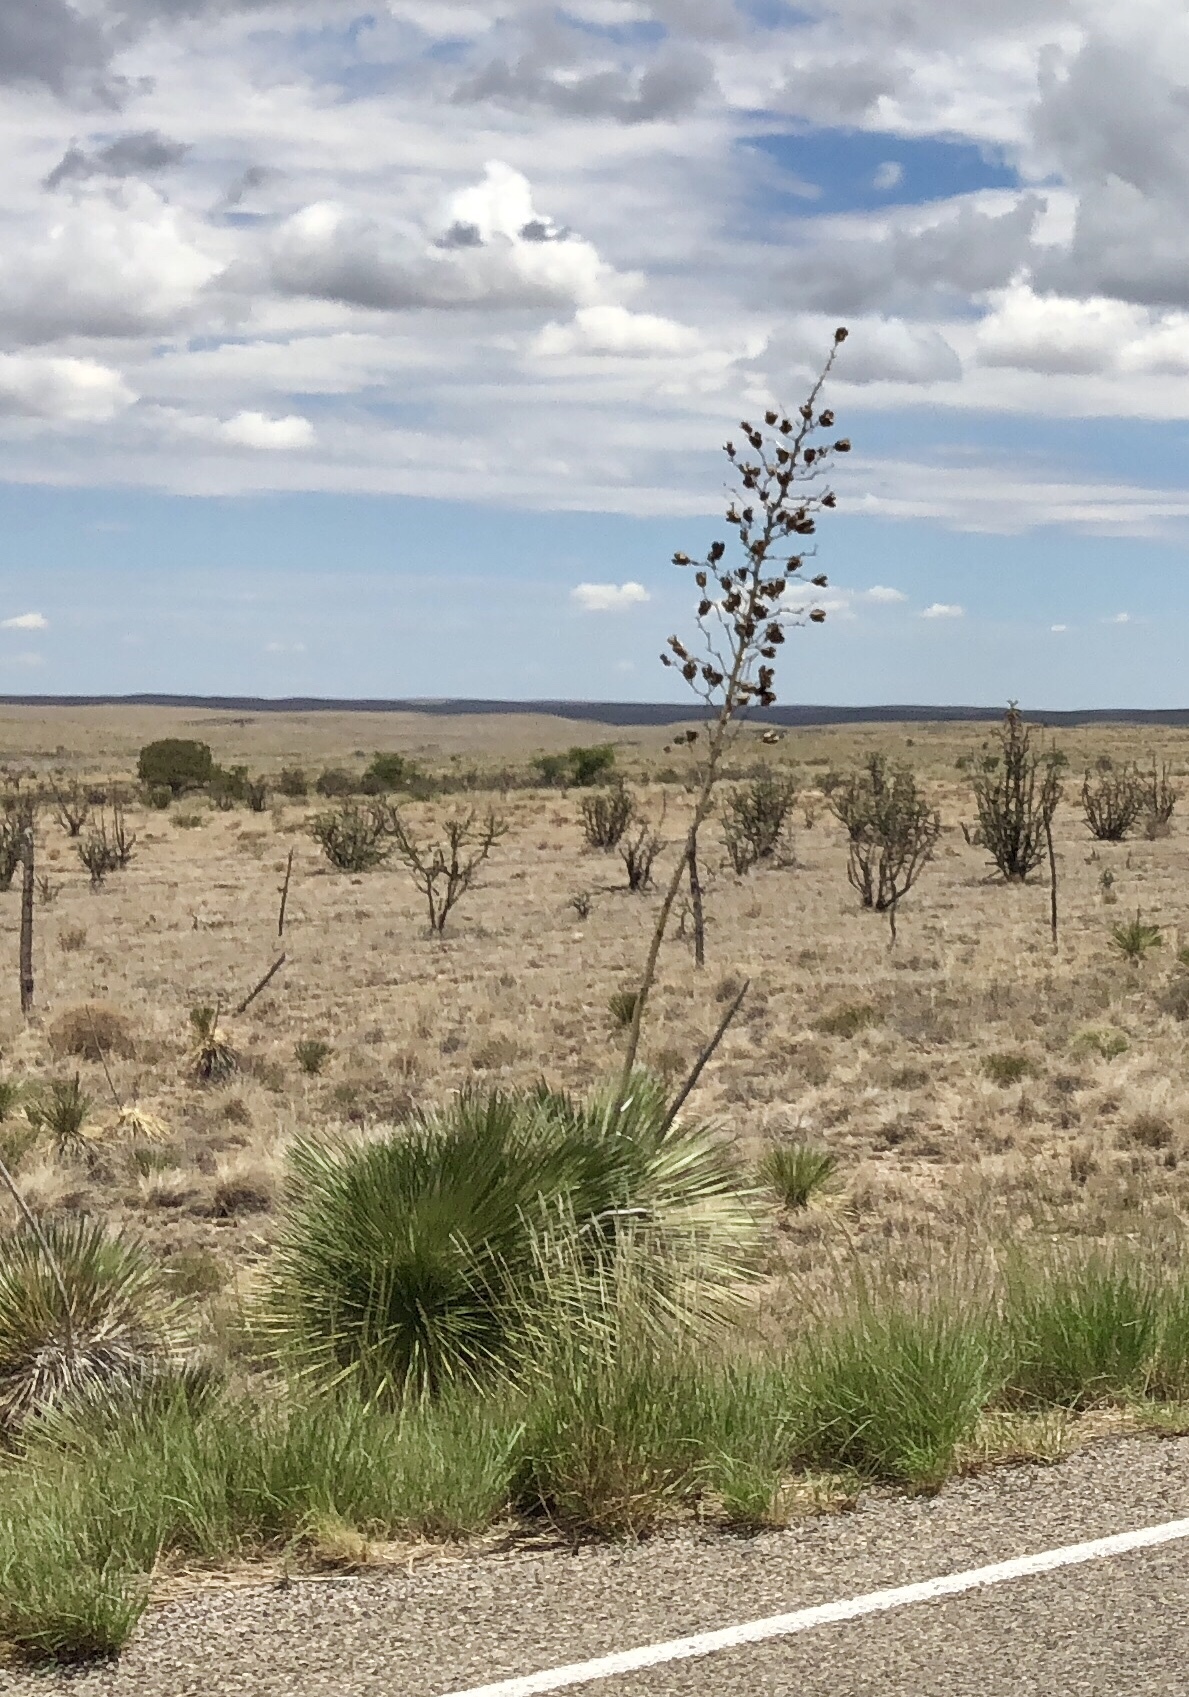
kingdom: Plantae
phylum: Tracheophyta
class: Liliopsida
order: Asparagales
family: Asparagaceae
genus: Yucca
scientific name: Yucca elata
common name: Palmella
